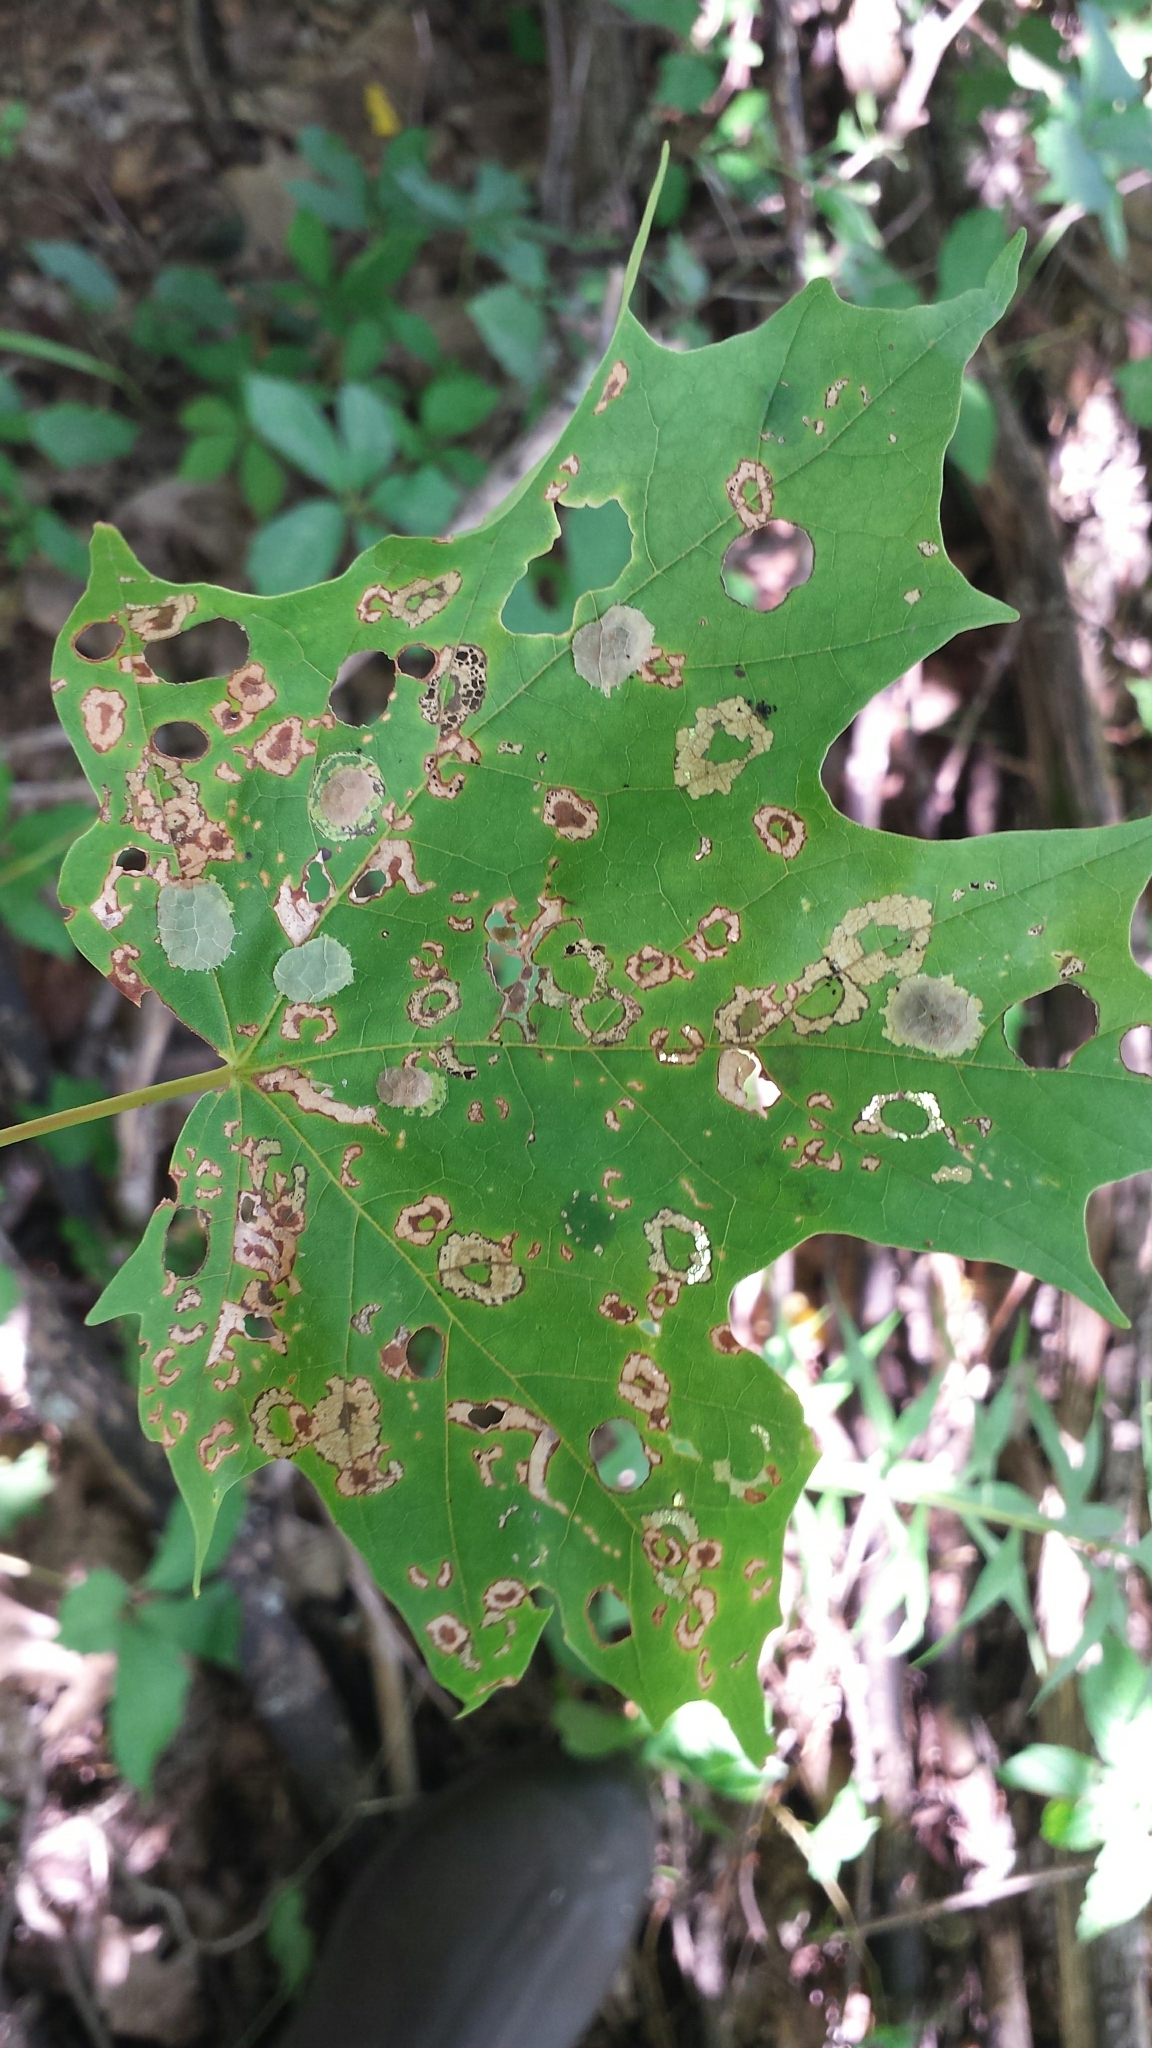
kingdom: Animalia
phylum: Arthropoda
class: Insecta
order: Lepidoptera
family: Incurvariidae
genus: Paraclemensia
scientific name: Paraclemensia acerifoliella
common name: Maple leafcutter
